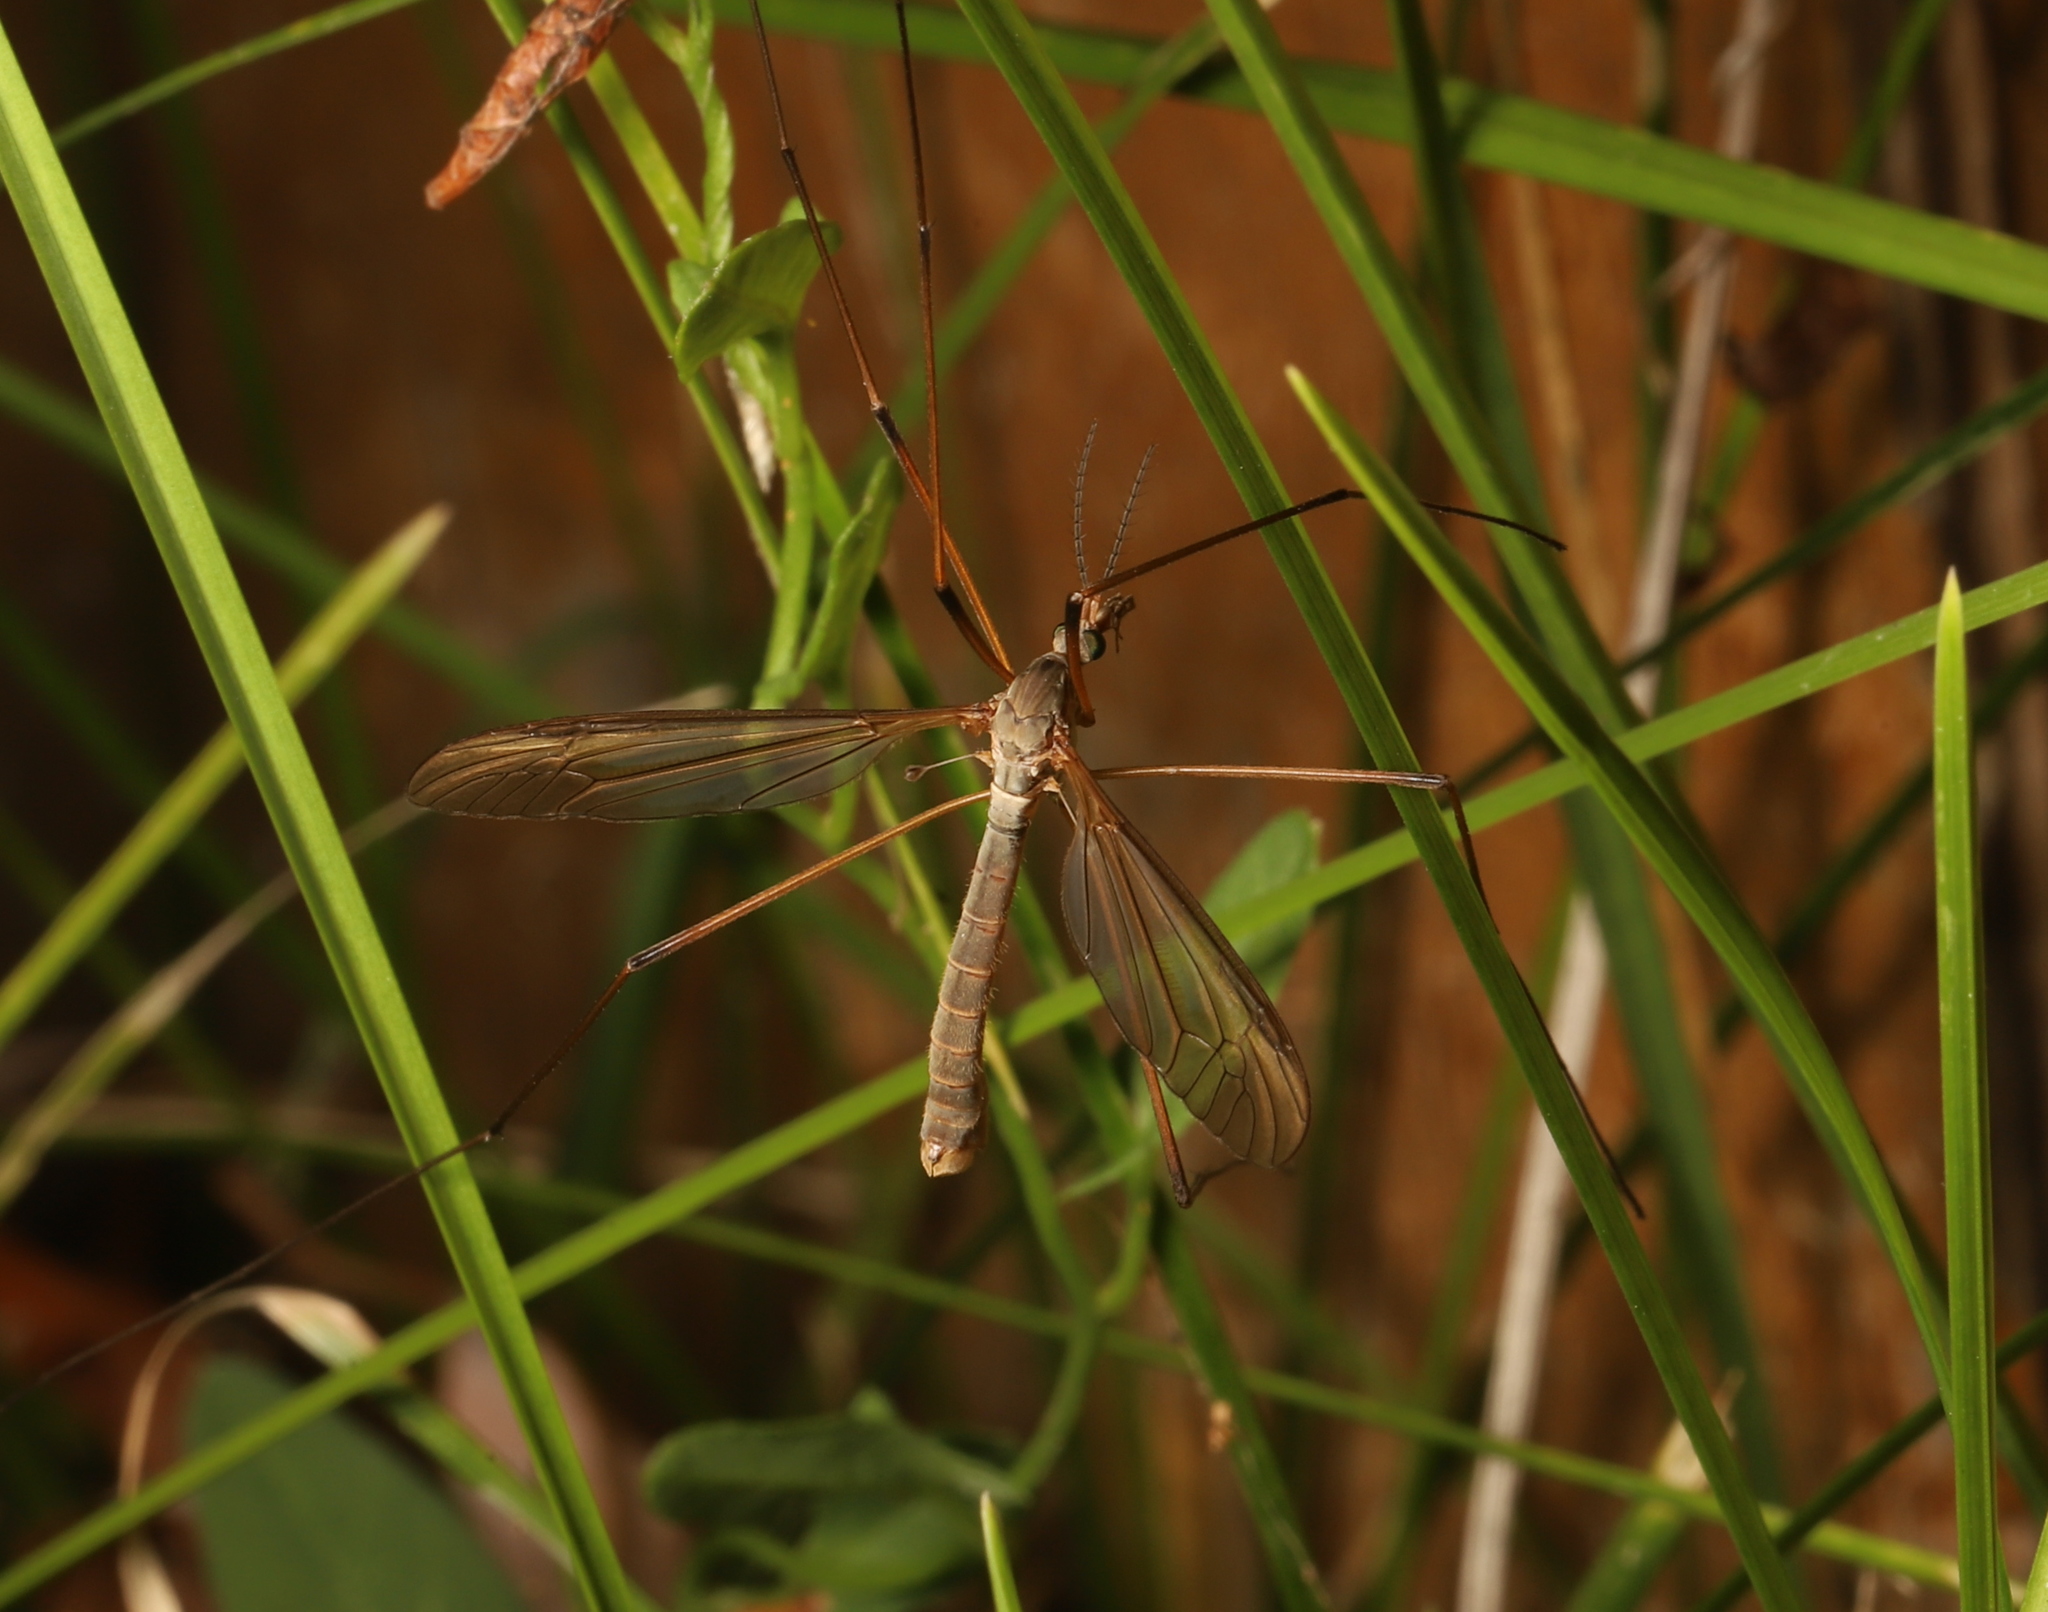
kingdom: Animalia
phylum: Arthropoda
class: Insecta
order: Diptera
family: Tipulidae
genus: Tipula
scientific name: Tipula paludosa
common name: European cranefly
